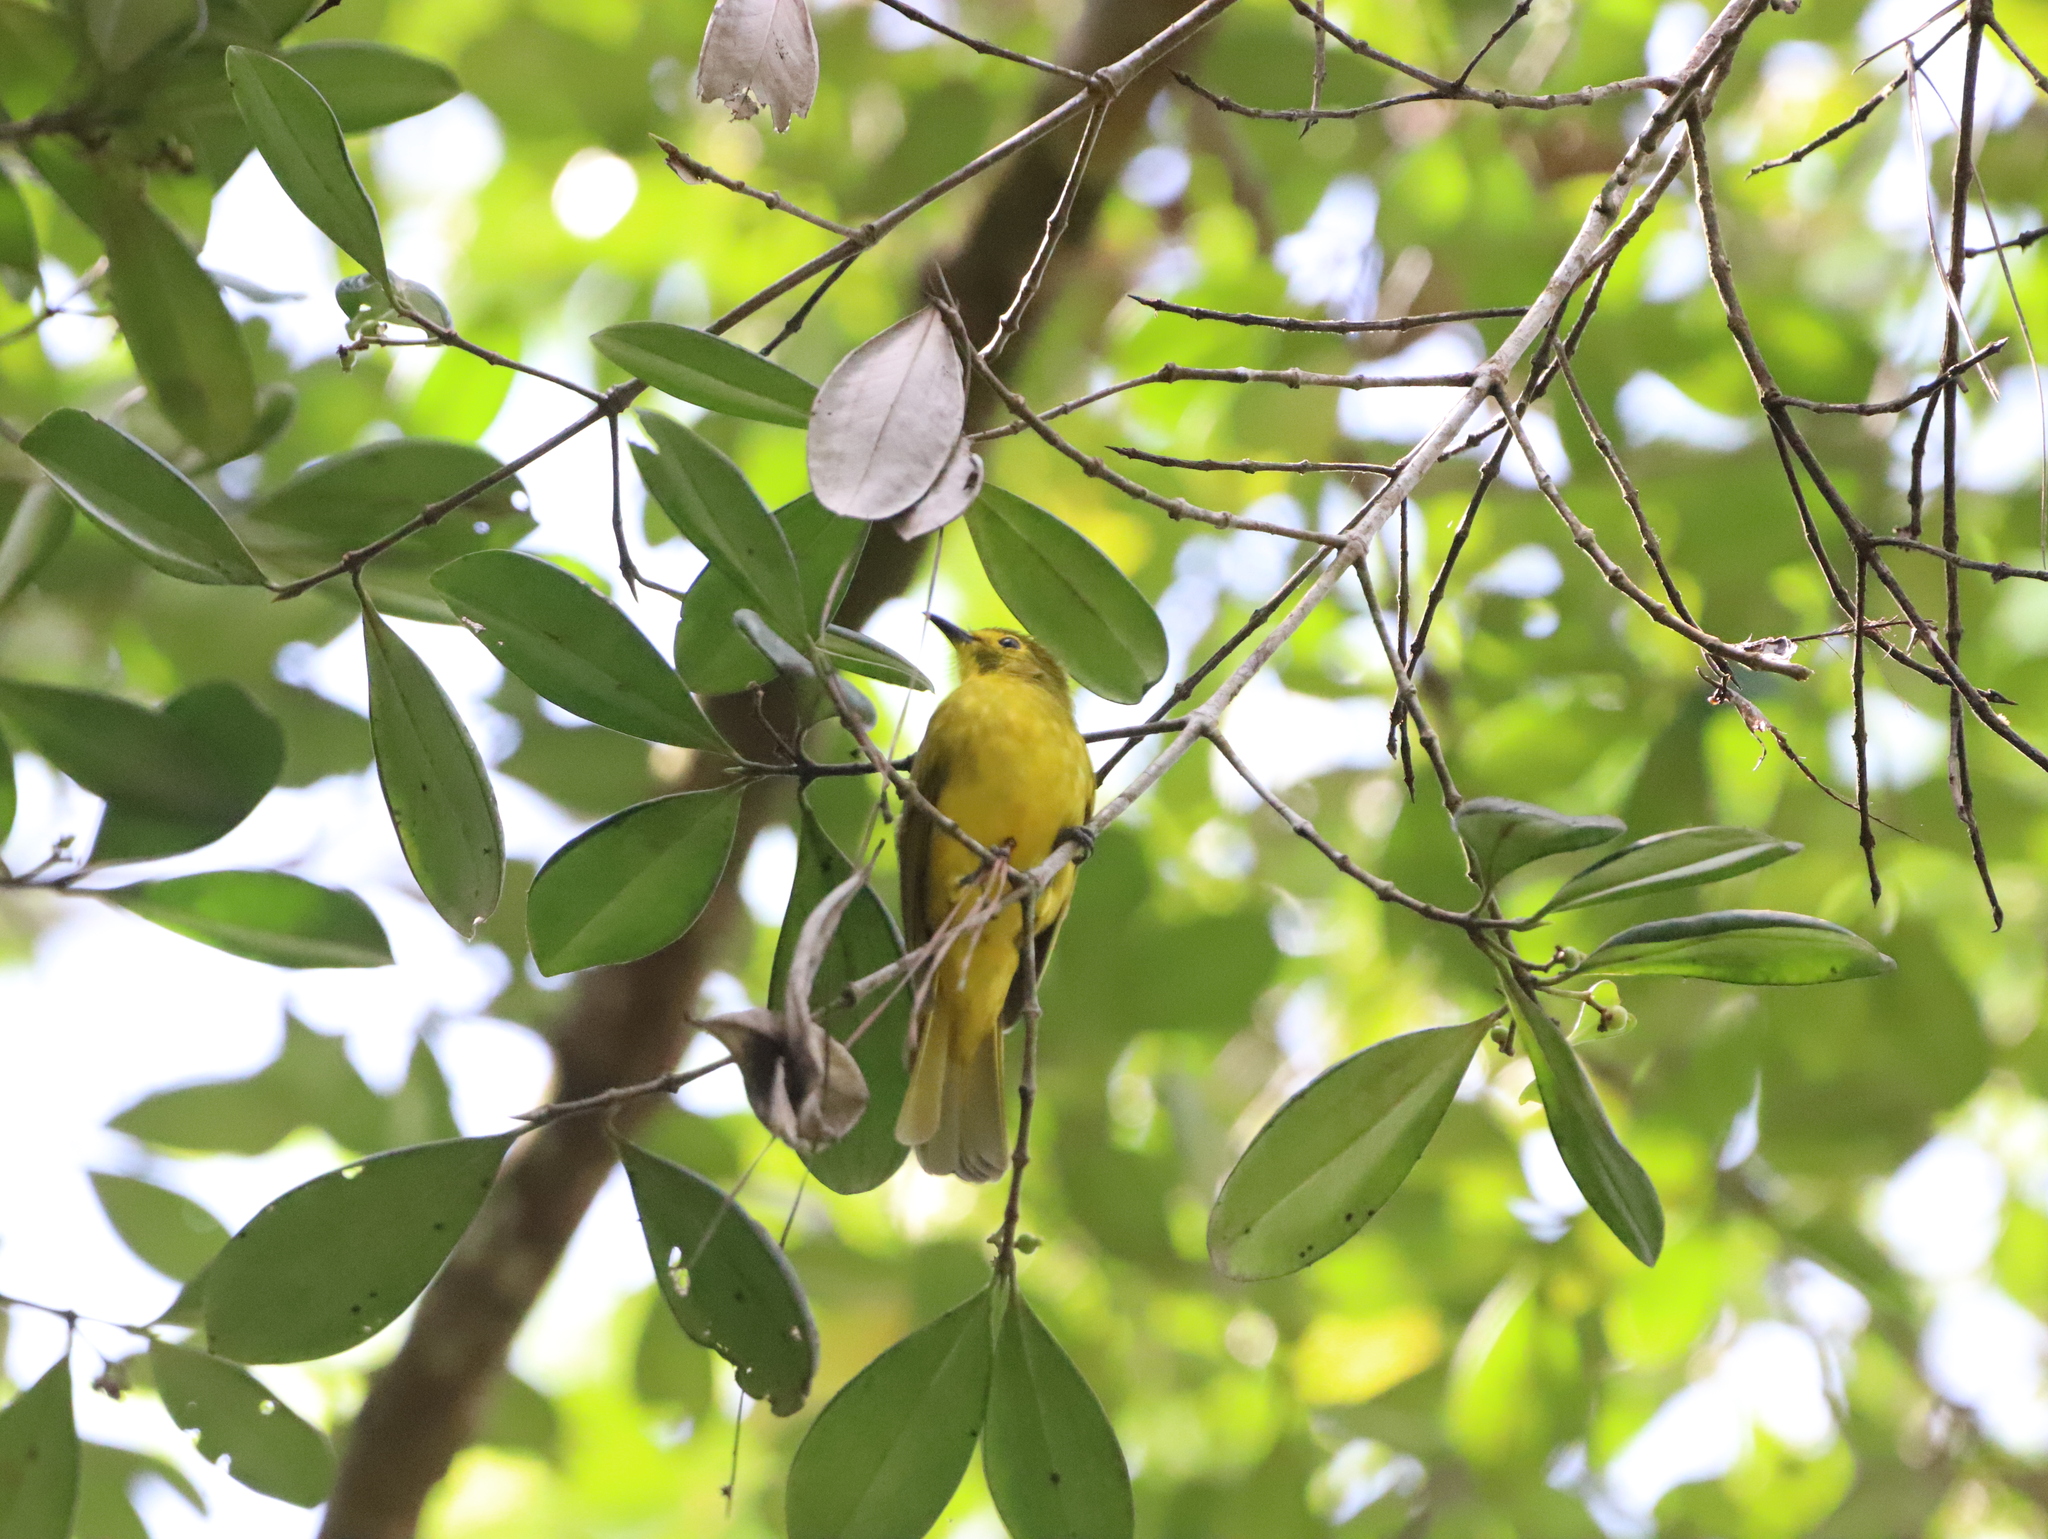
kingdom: Animalia
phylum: Chordata
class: Aves
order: Passeriformes
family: Pycnonotidae
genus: Acritillas
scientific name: Acritillas indica
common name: Yellow-browed bulbul
